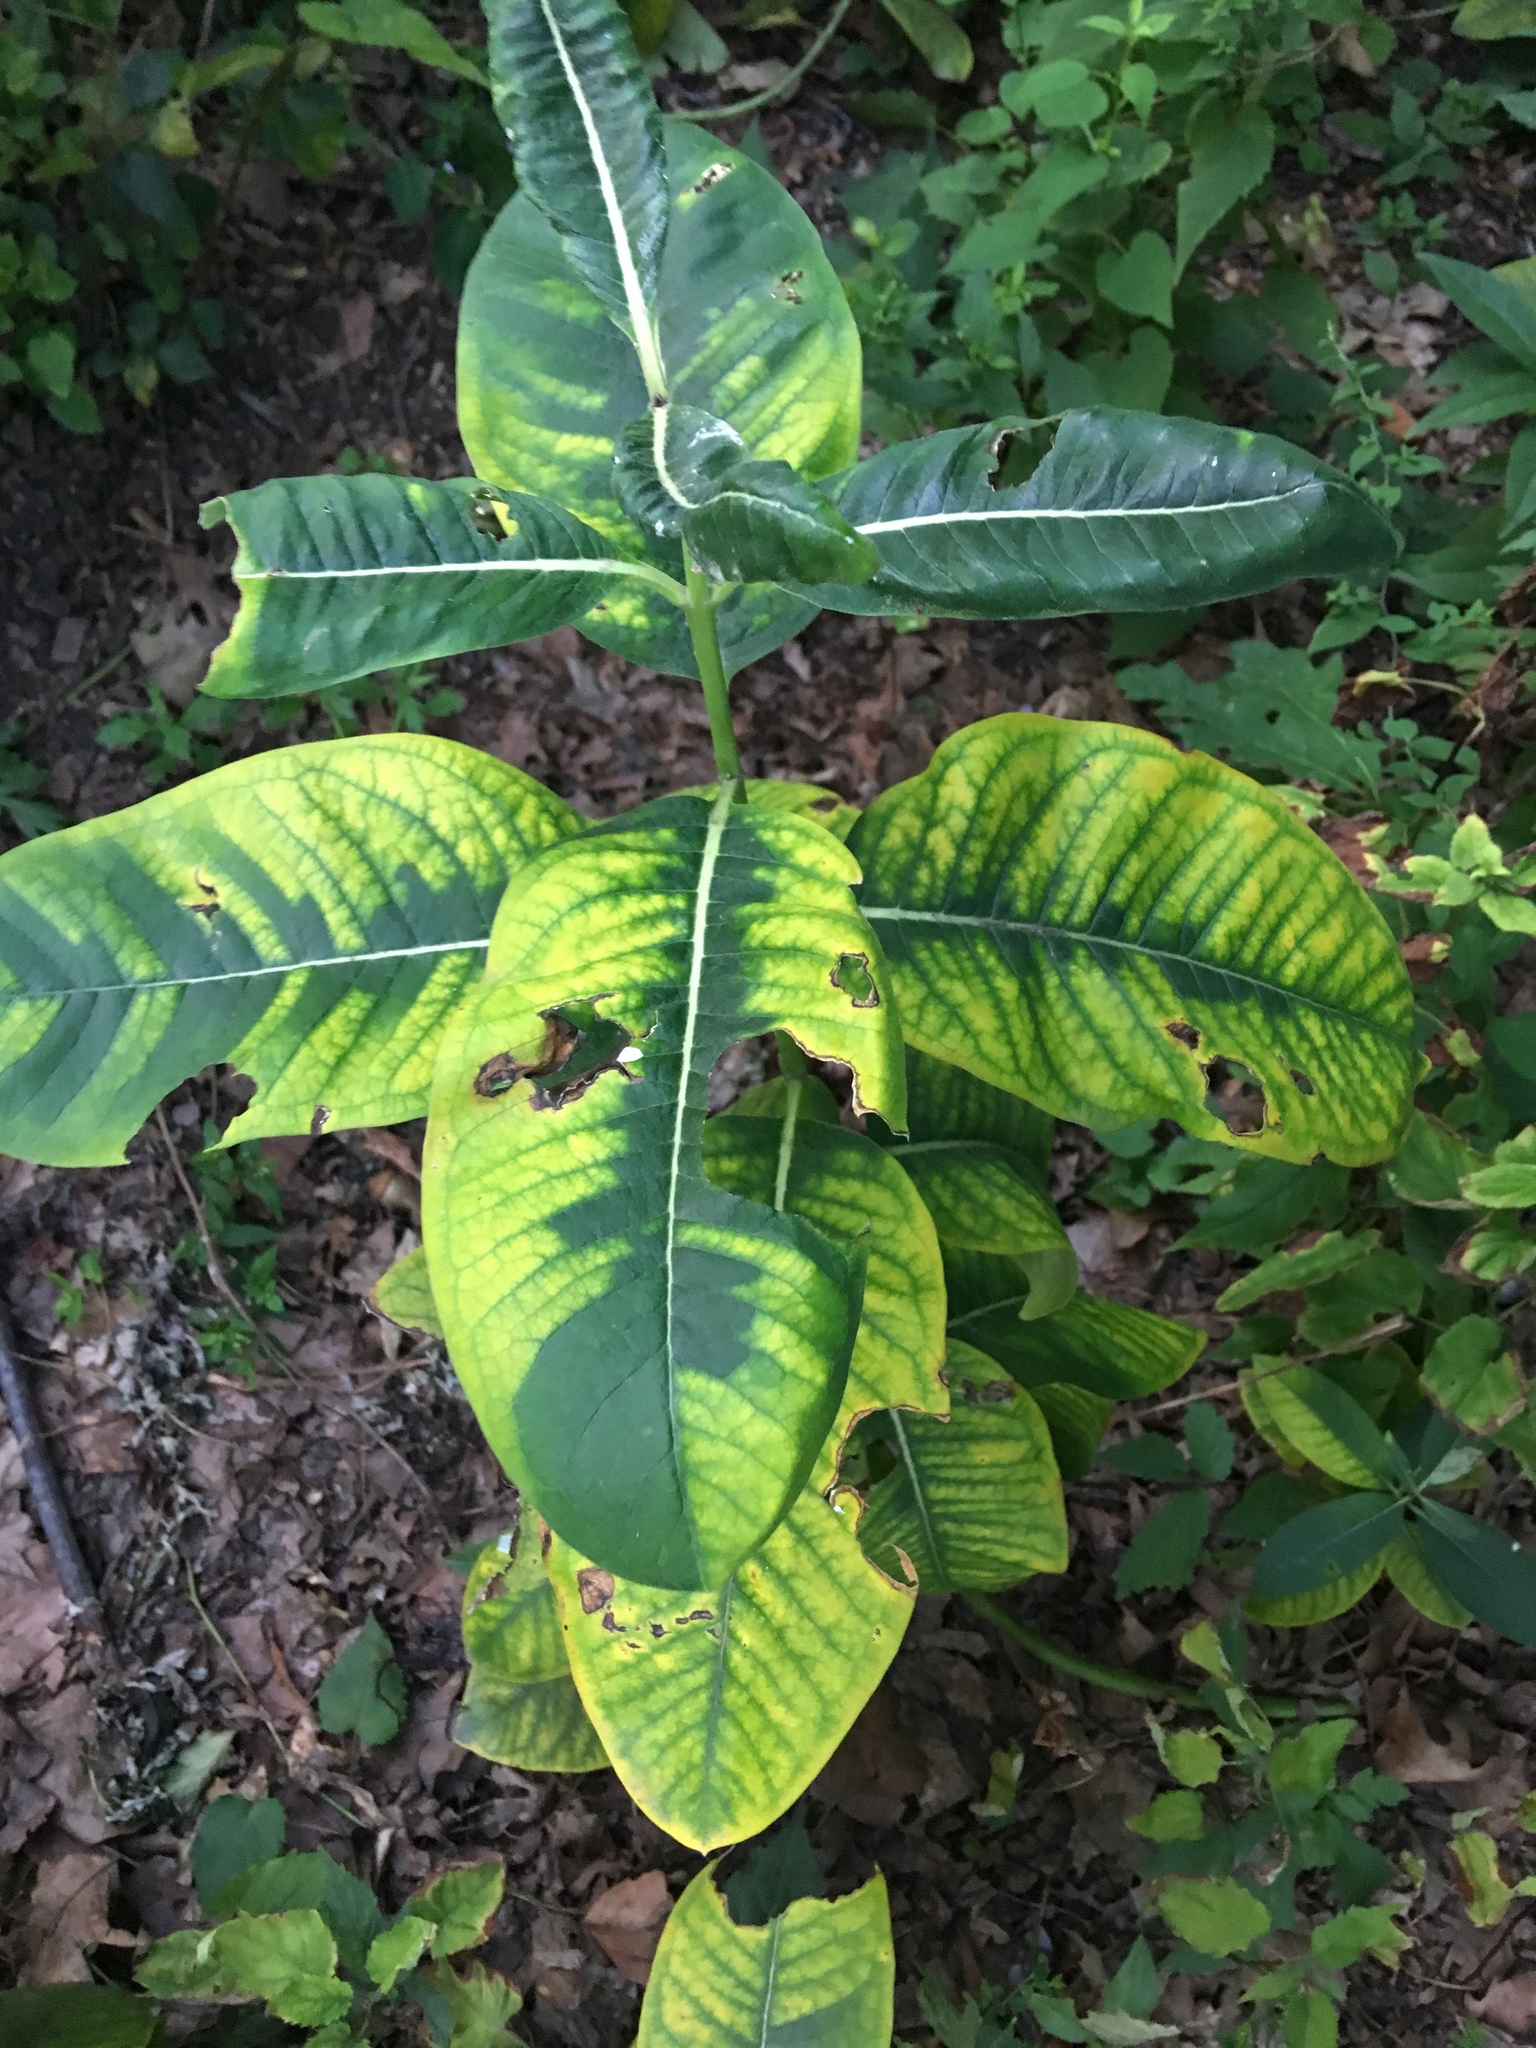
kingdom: Plantae
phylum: Tracheophyta
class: Magnoliopsida
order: Gentianales
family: Apocynaceae
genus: Asclepias
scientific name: Asclepias syriaca
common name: Common milkweed
